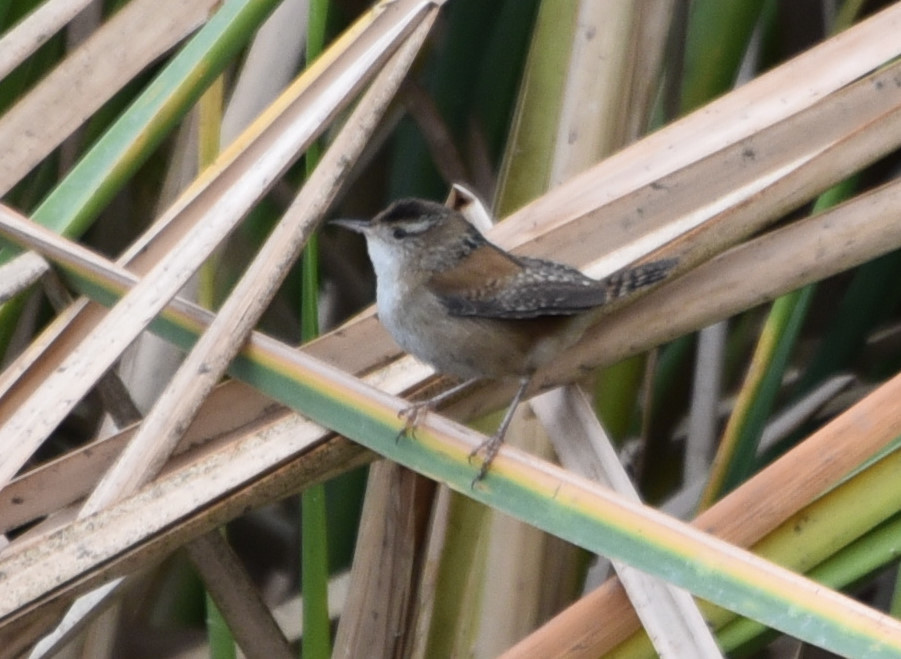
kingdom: Animalia
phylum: Chordata
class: Aves
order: Passeriformes
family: Troglodytidae
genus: Cistothorus
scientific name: Cistothorus palustris
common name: Marsh wren
